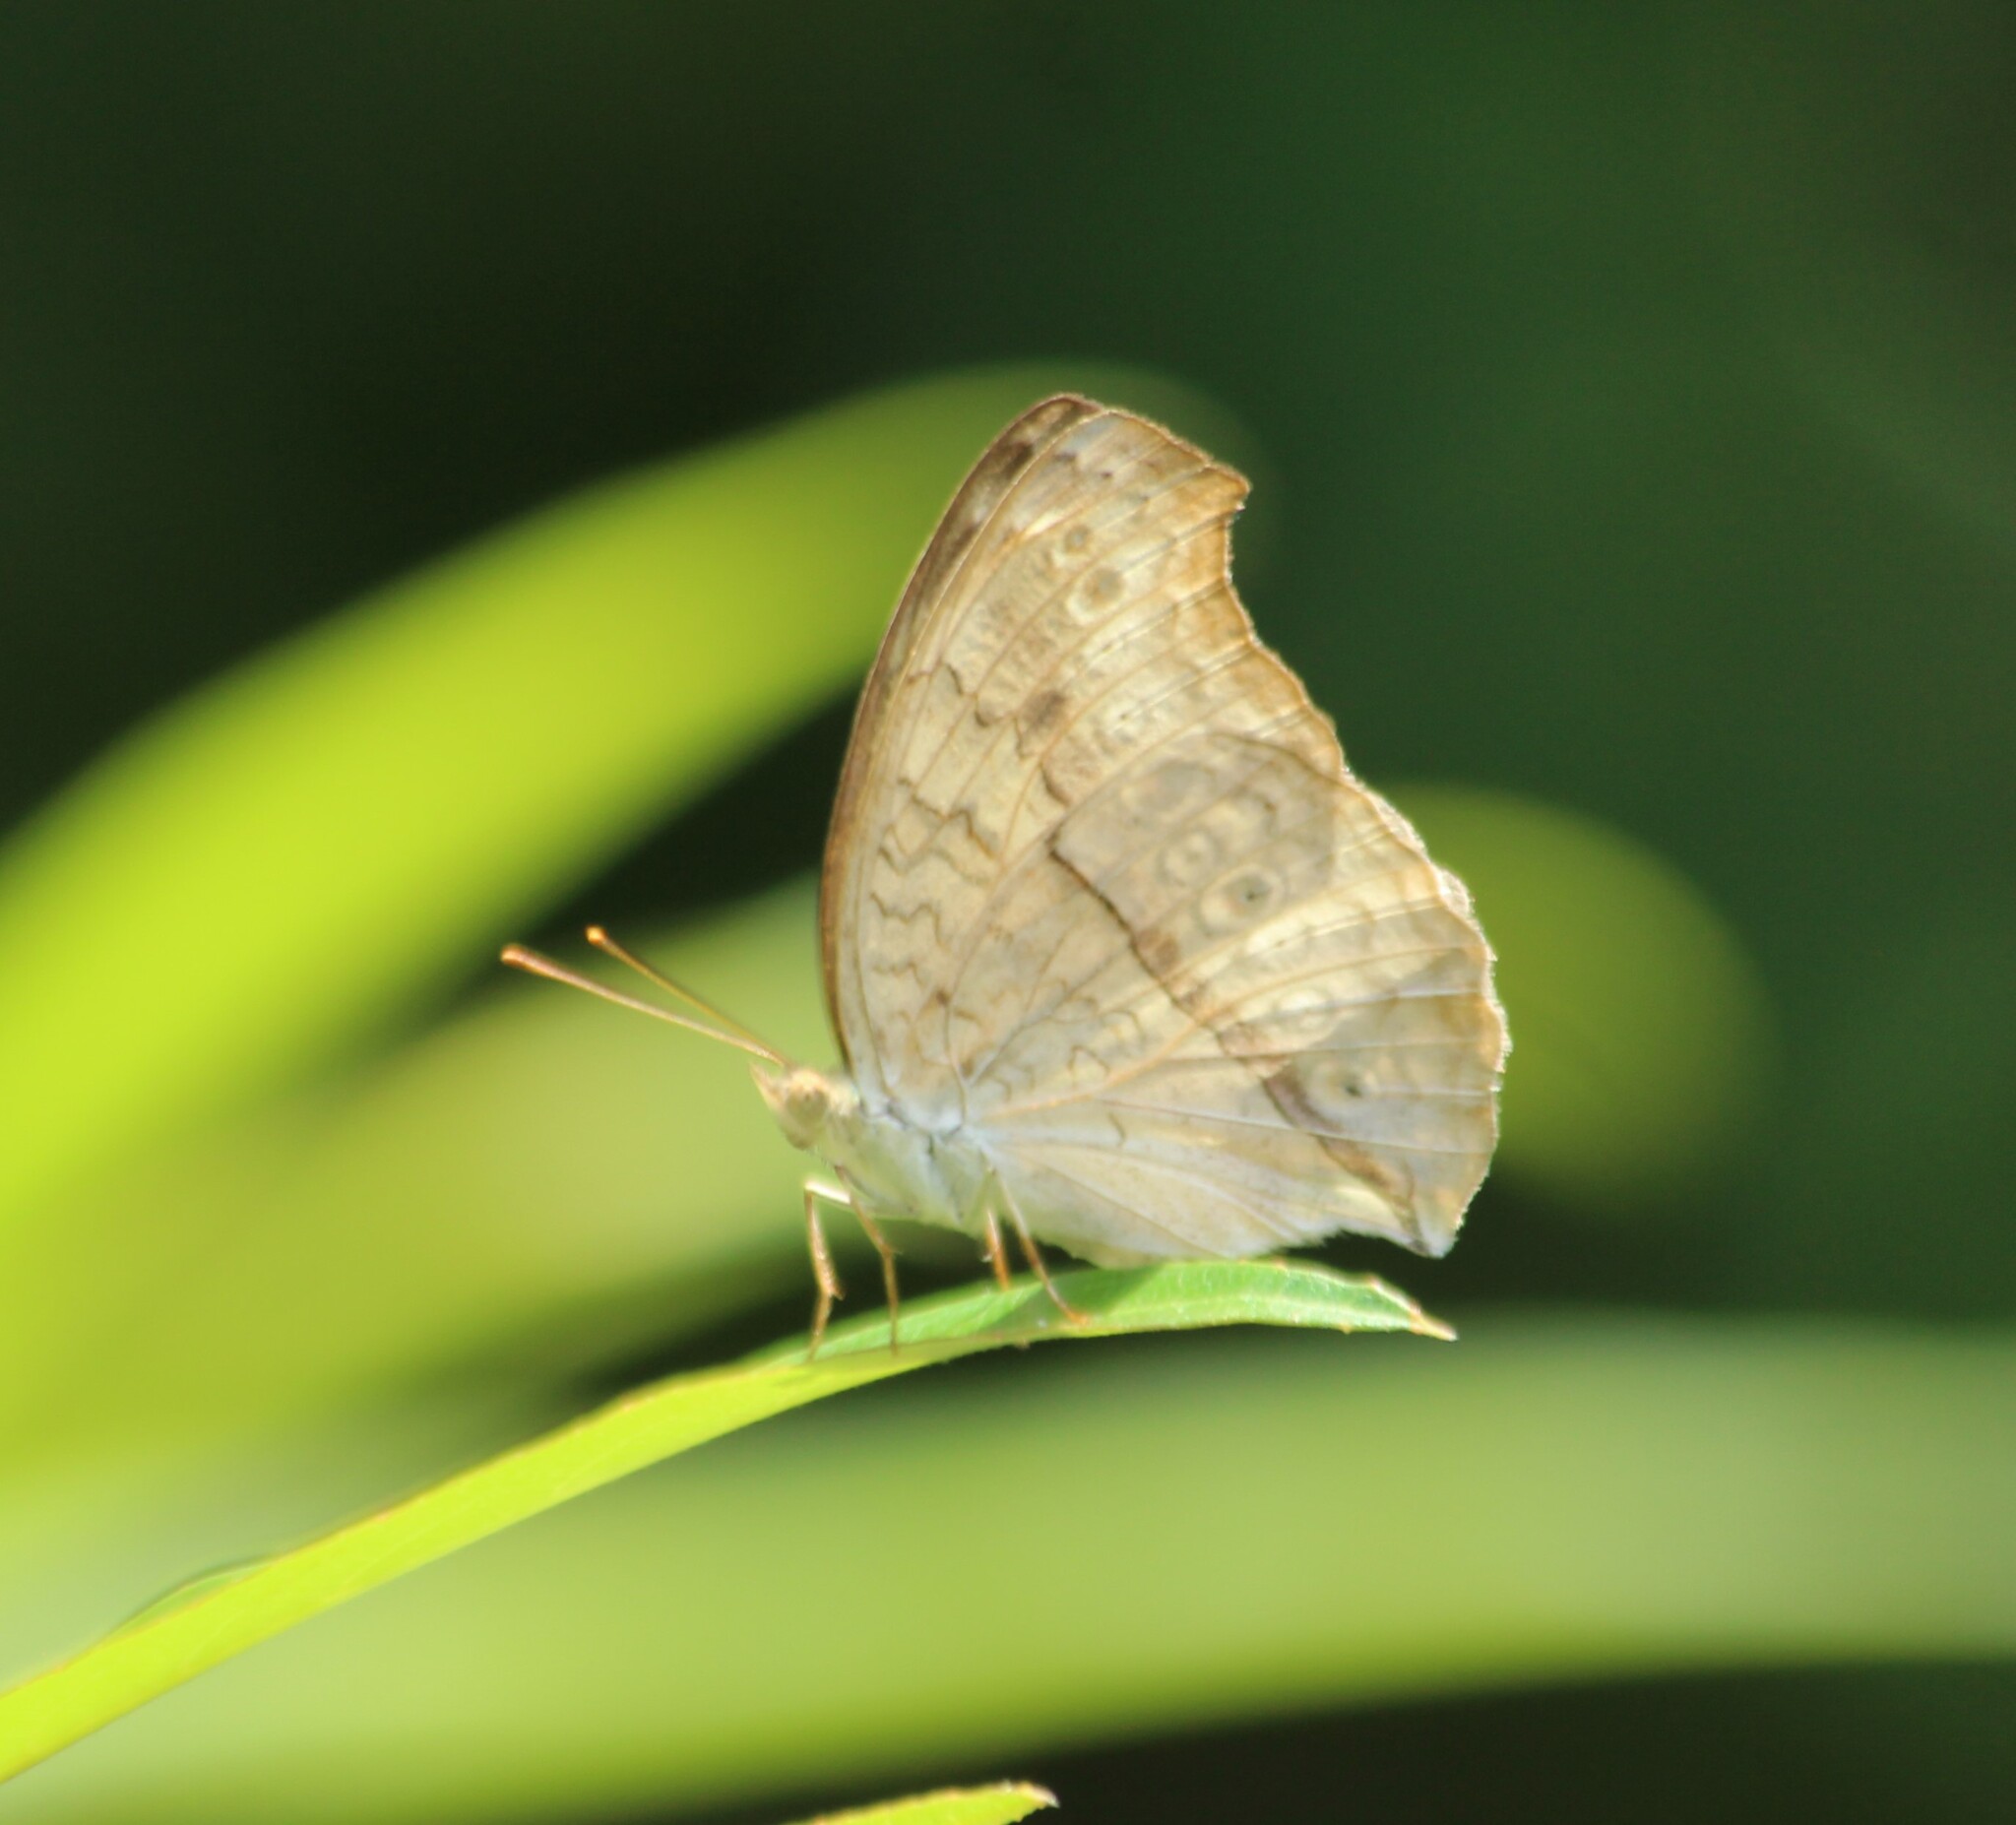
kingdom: Animalia
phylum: Arthropoda
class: Insecta
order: Lepidoptera
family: Nymphalidae
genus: Junonia
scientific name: Junonia atlites
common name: Grey pansy
